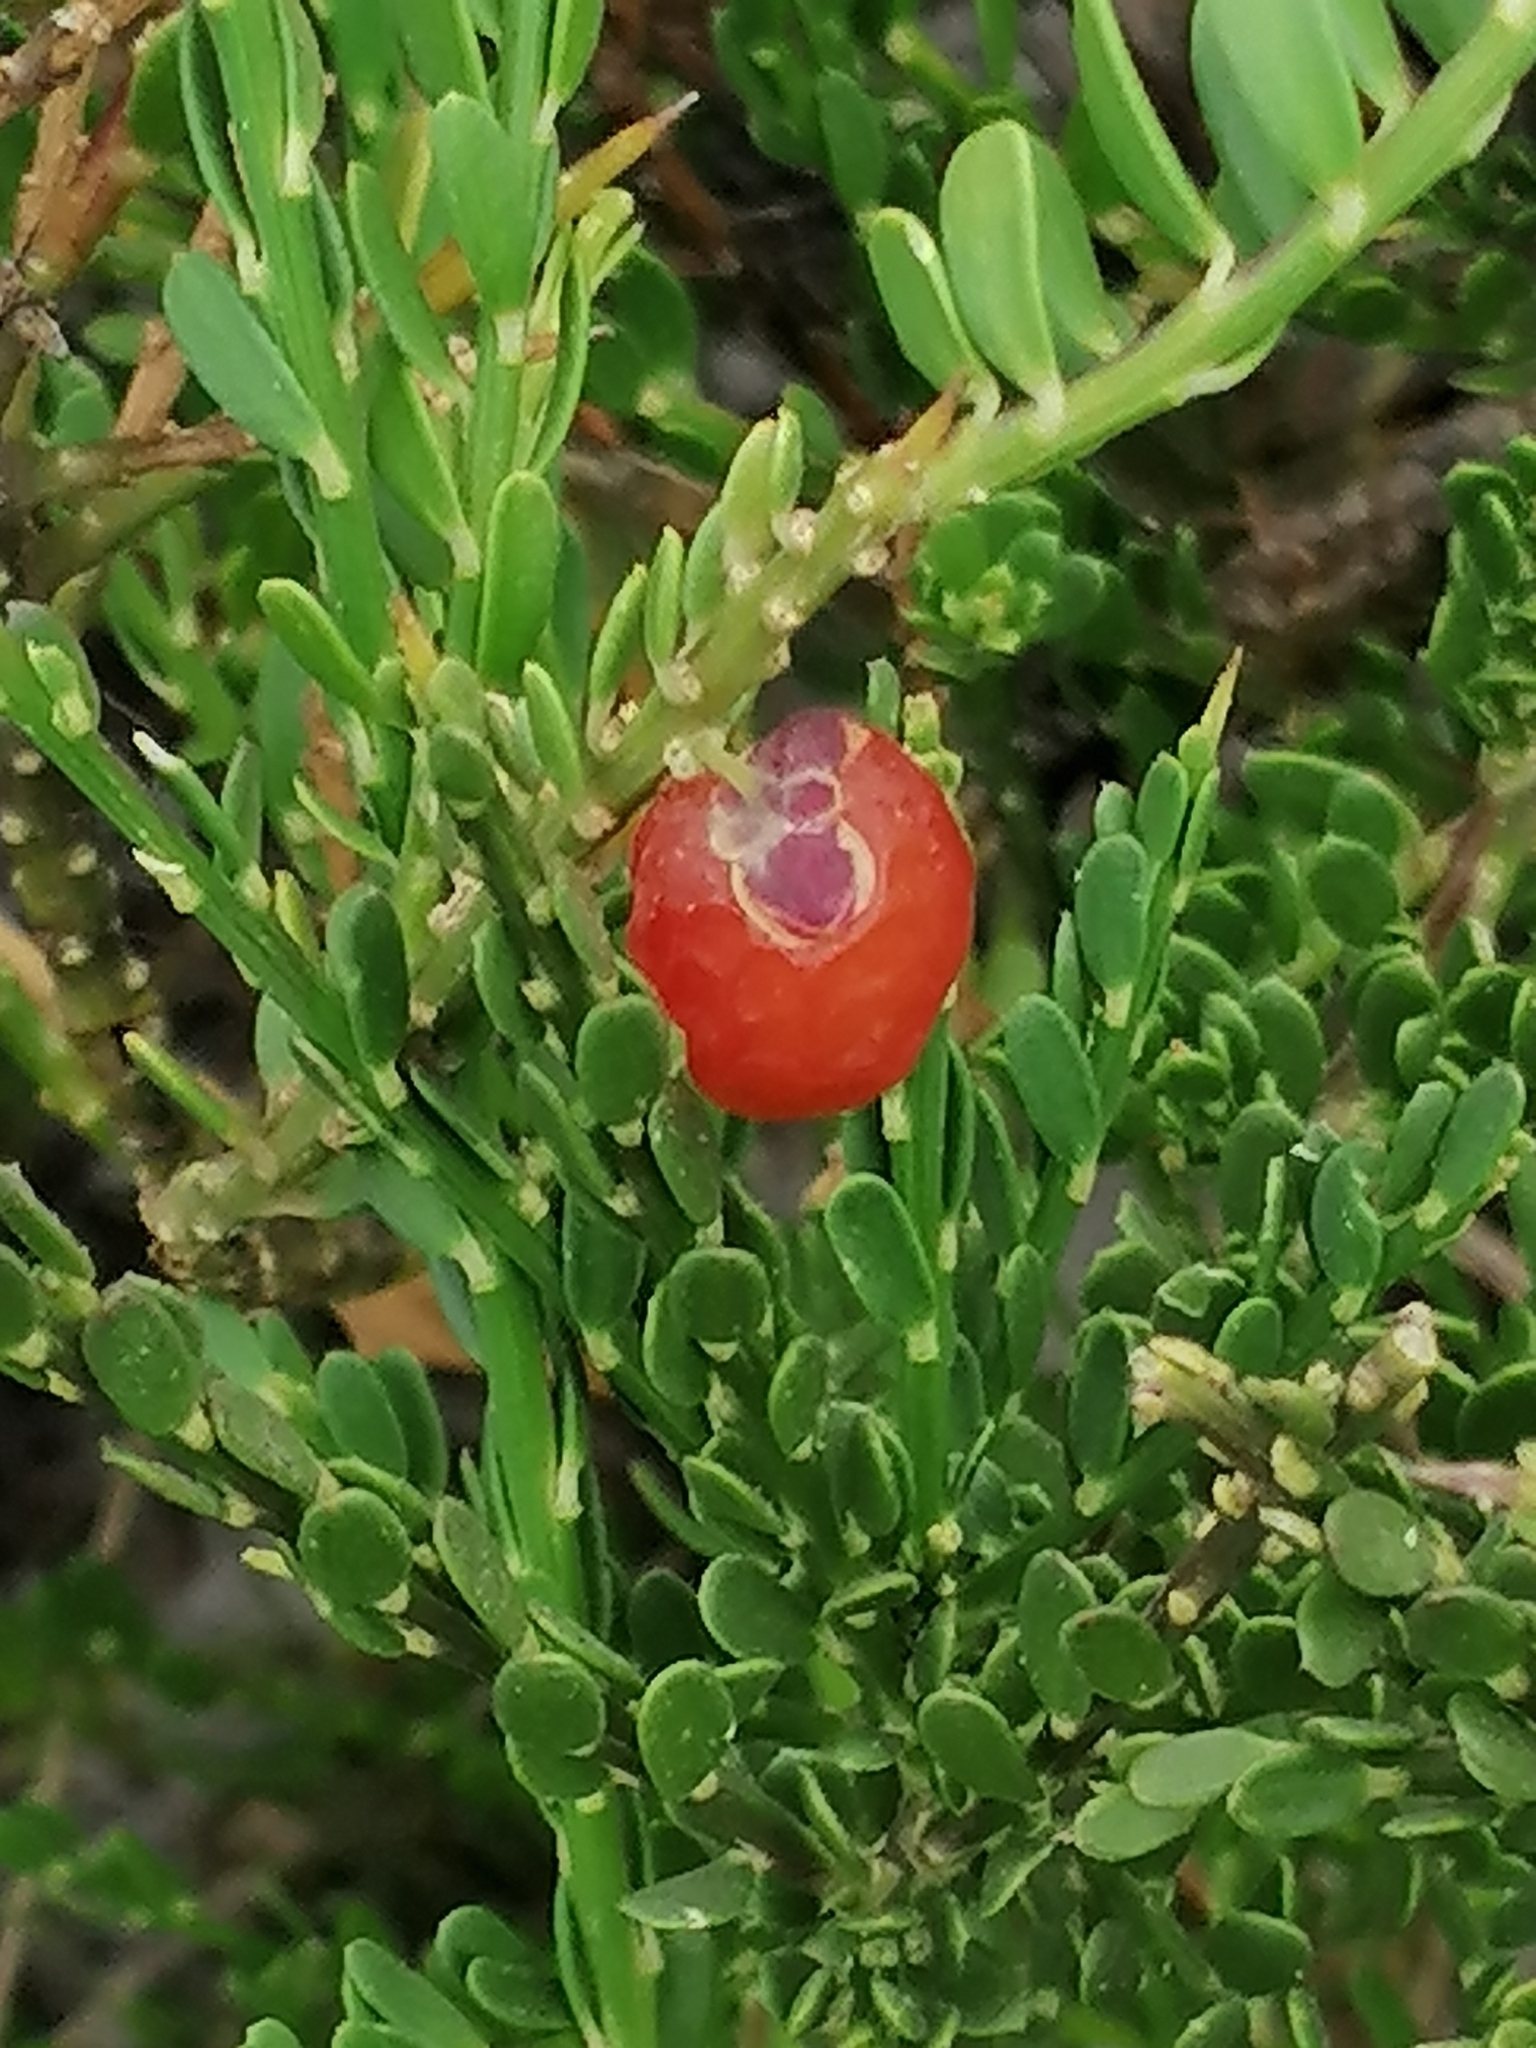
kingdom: Plantae
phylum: Tracheophyta
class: Magnoliopsida
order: Fabales
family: Polygalaceae
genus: Muraltia
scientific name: Muraltia spinosa
